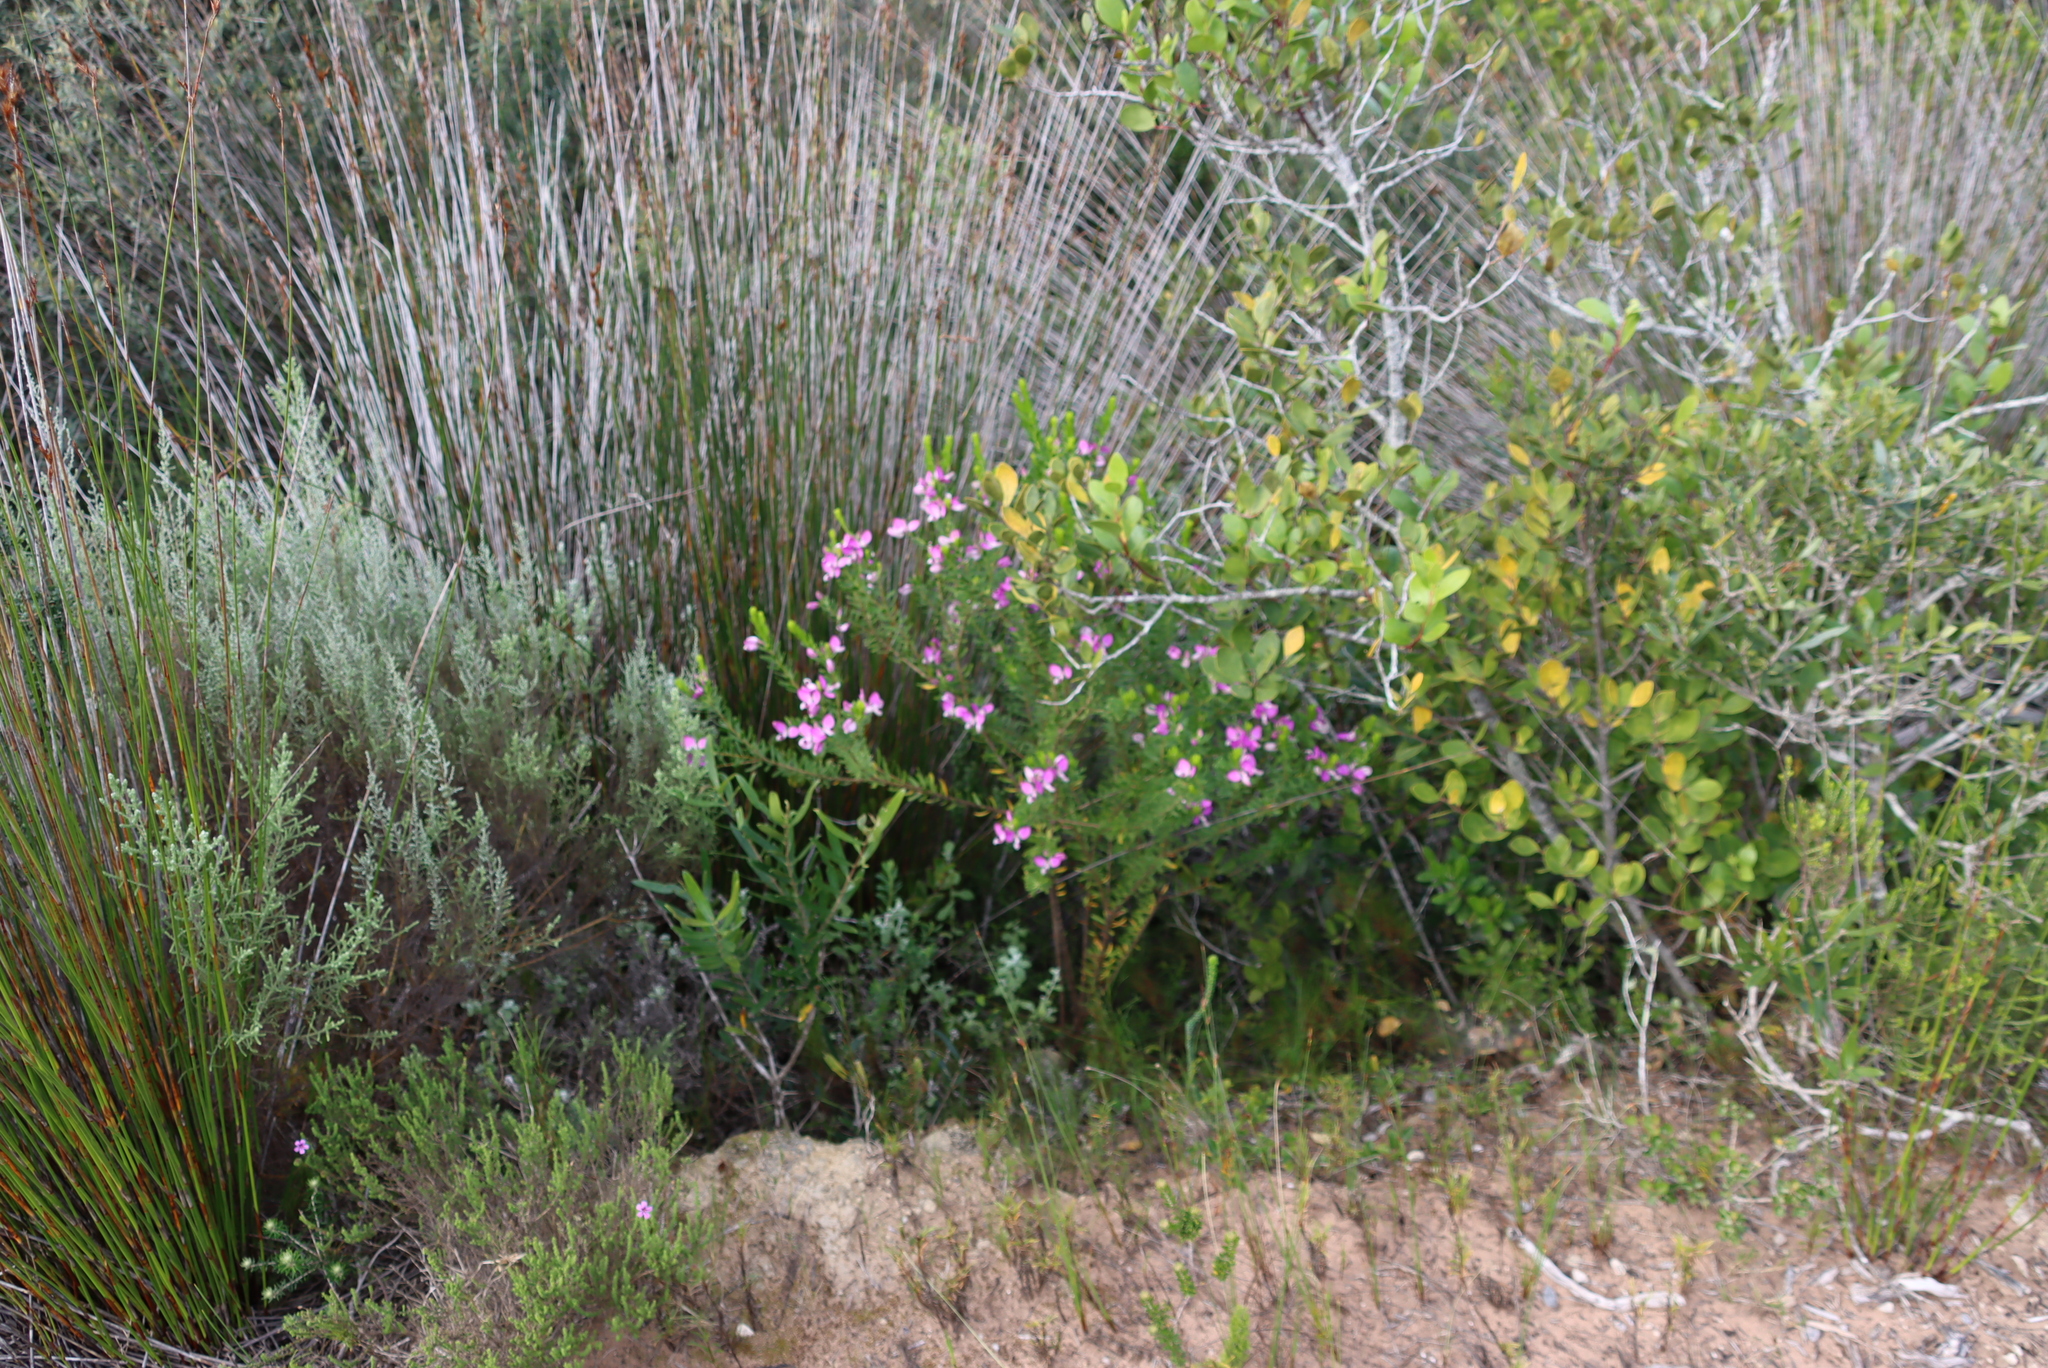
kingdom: Plantae
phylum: Tracheophyta
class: Magnoliopsida
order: Fabales
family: Polygalaceae
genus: Polygala
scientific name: Polygala myrtifolia
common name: Myrtle-leaf milkwort
